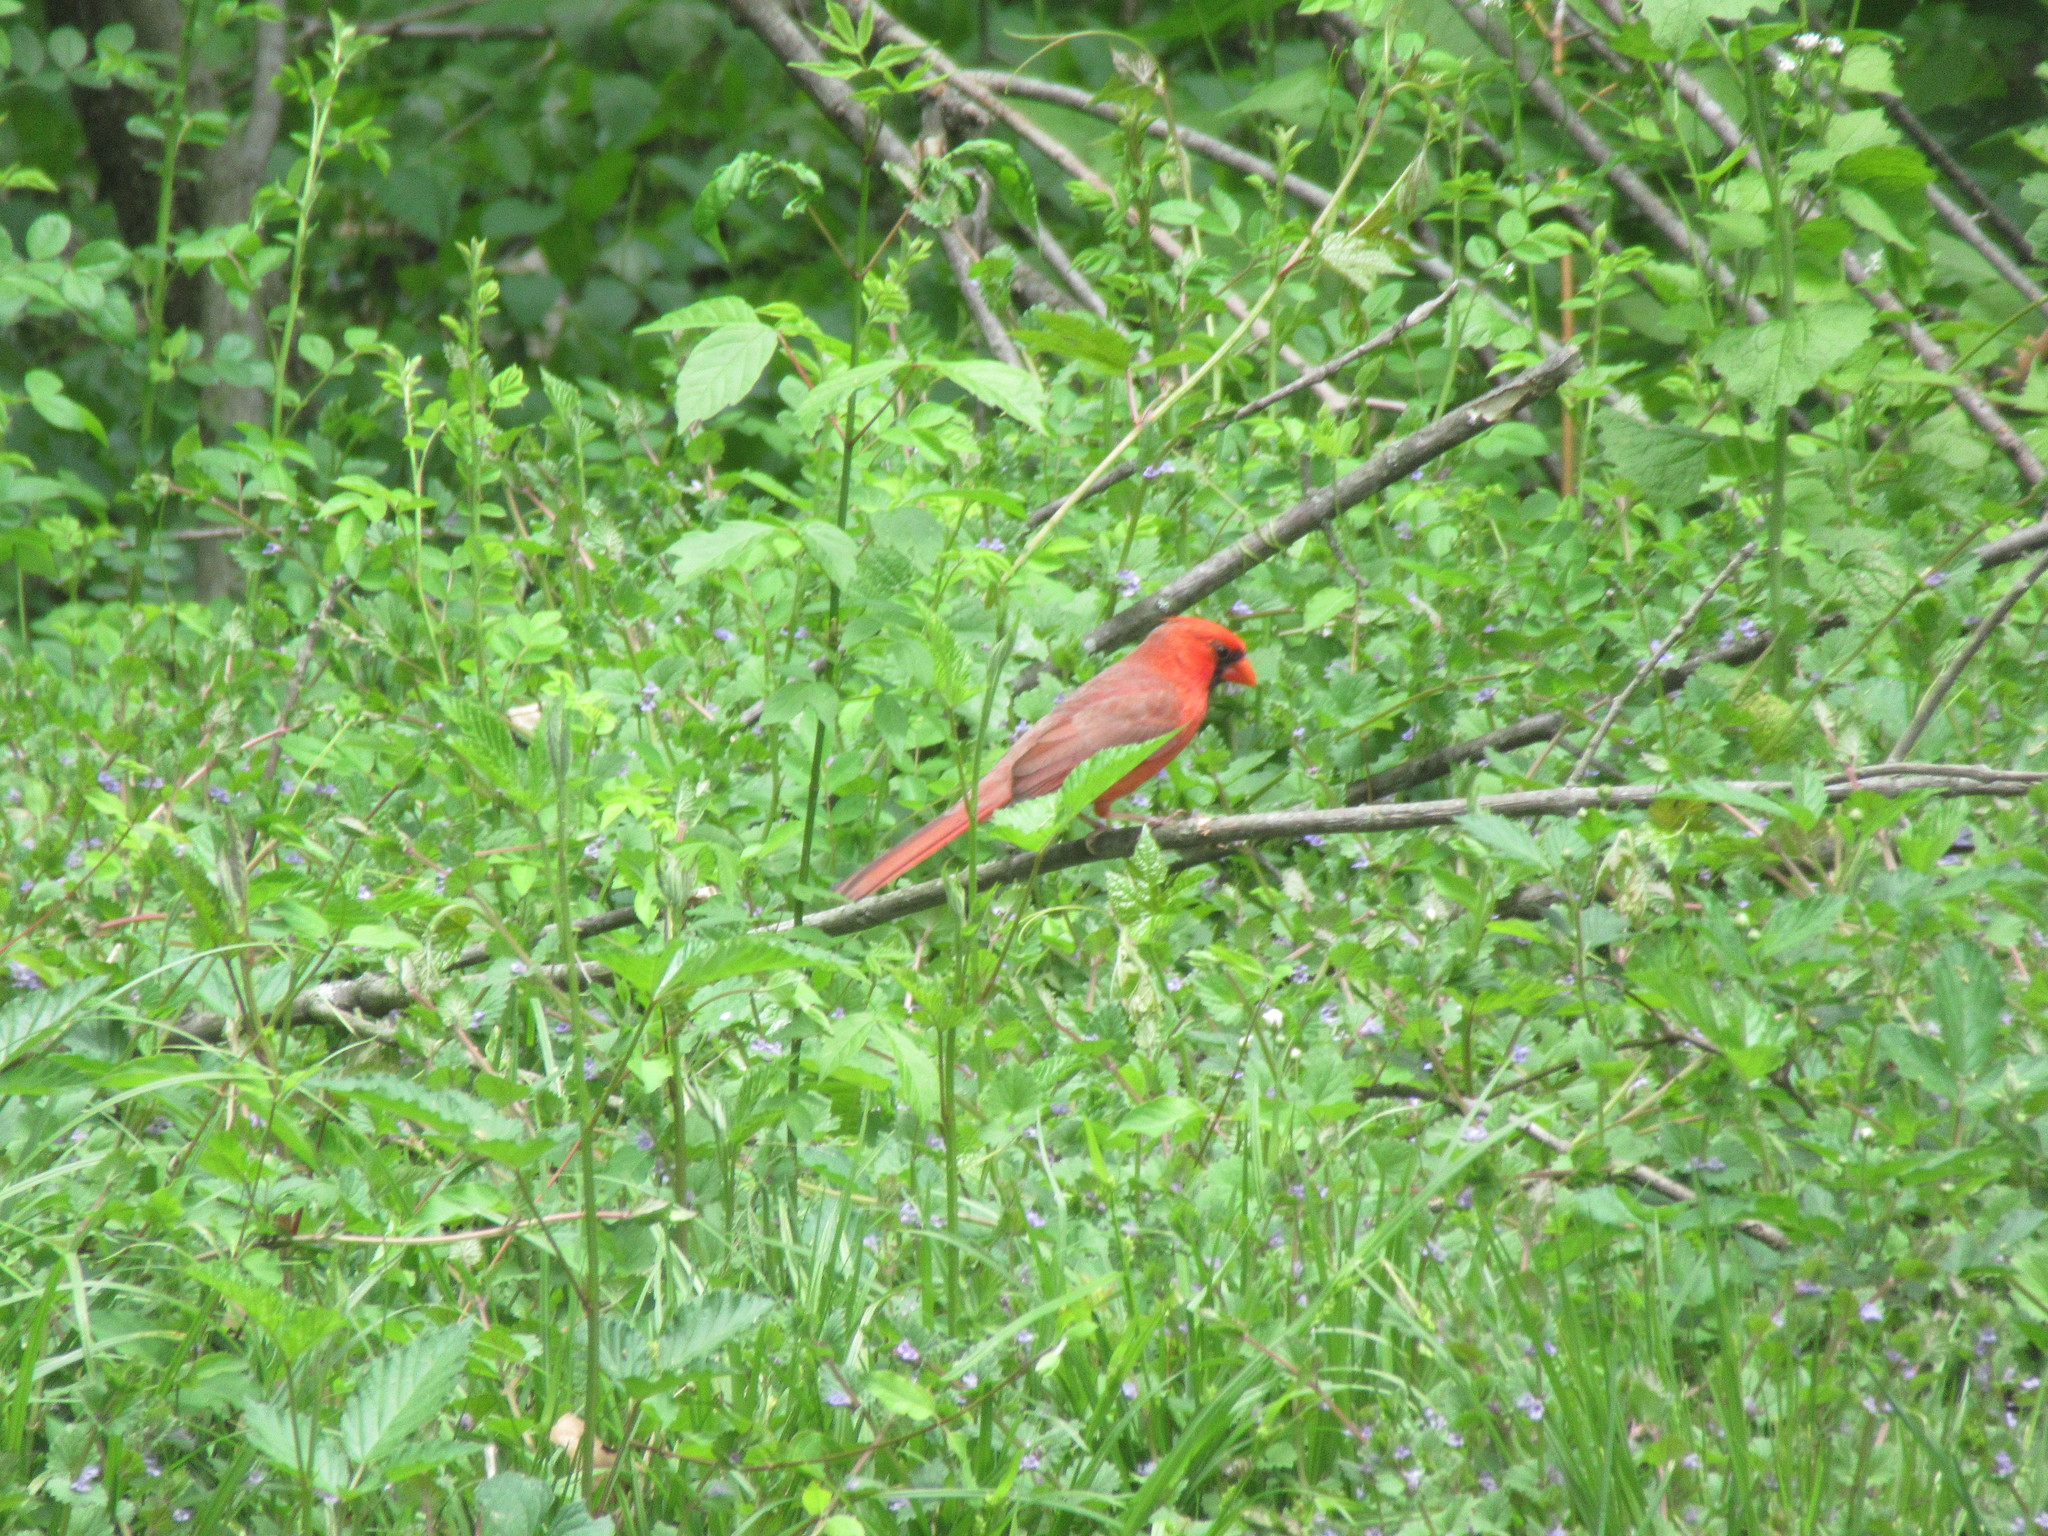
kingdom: Animalia
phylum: Chordata
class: Aves
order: Passeriformes
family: Cardinalidae
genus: Cardinalis
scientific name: Cardinalis cardinalis
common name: Northern cardinal
